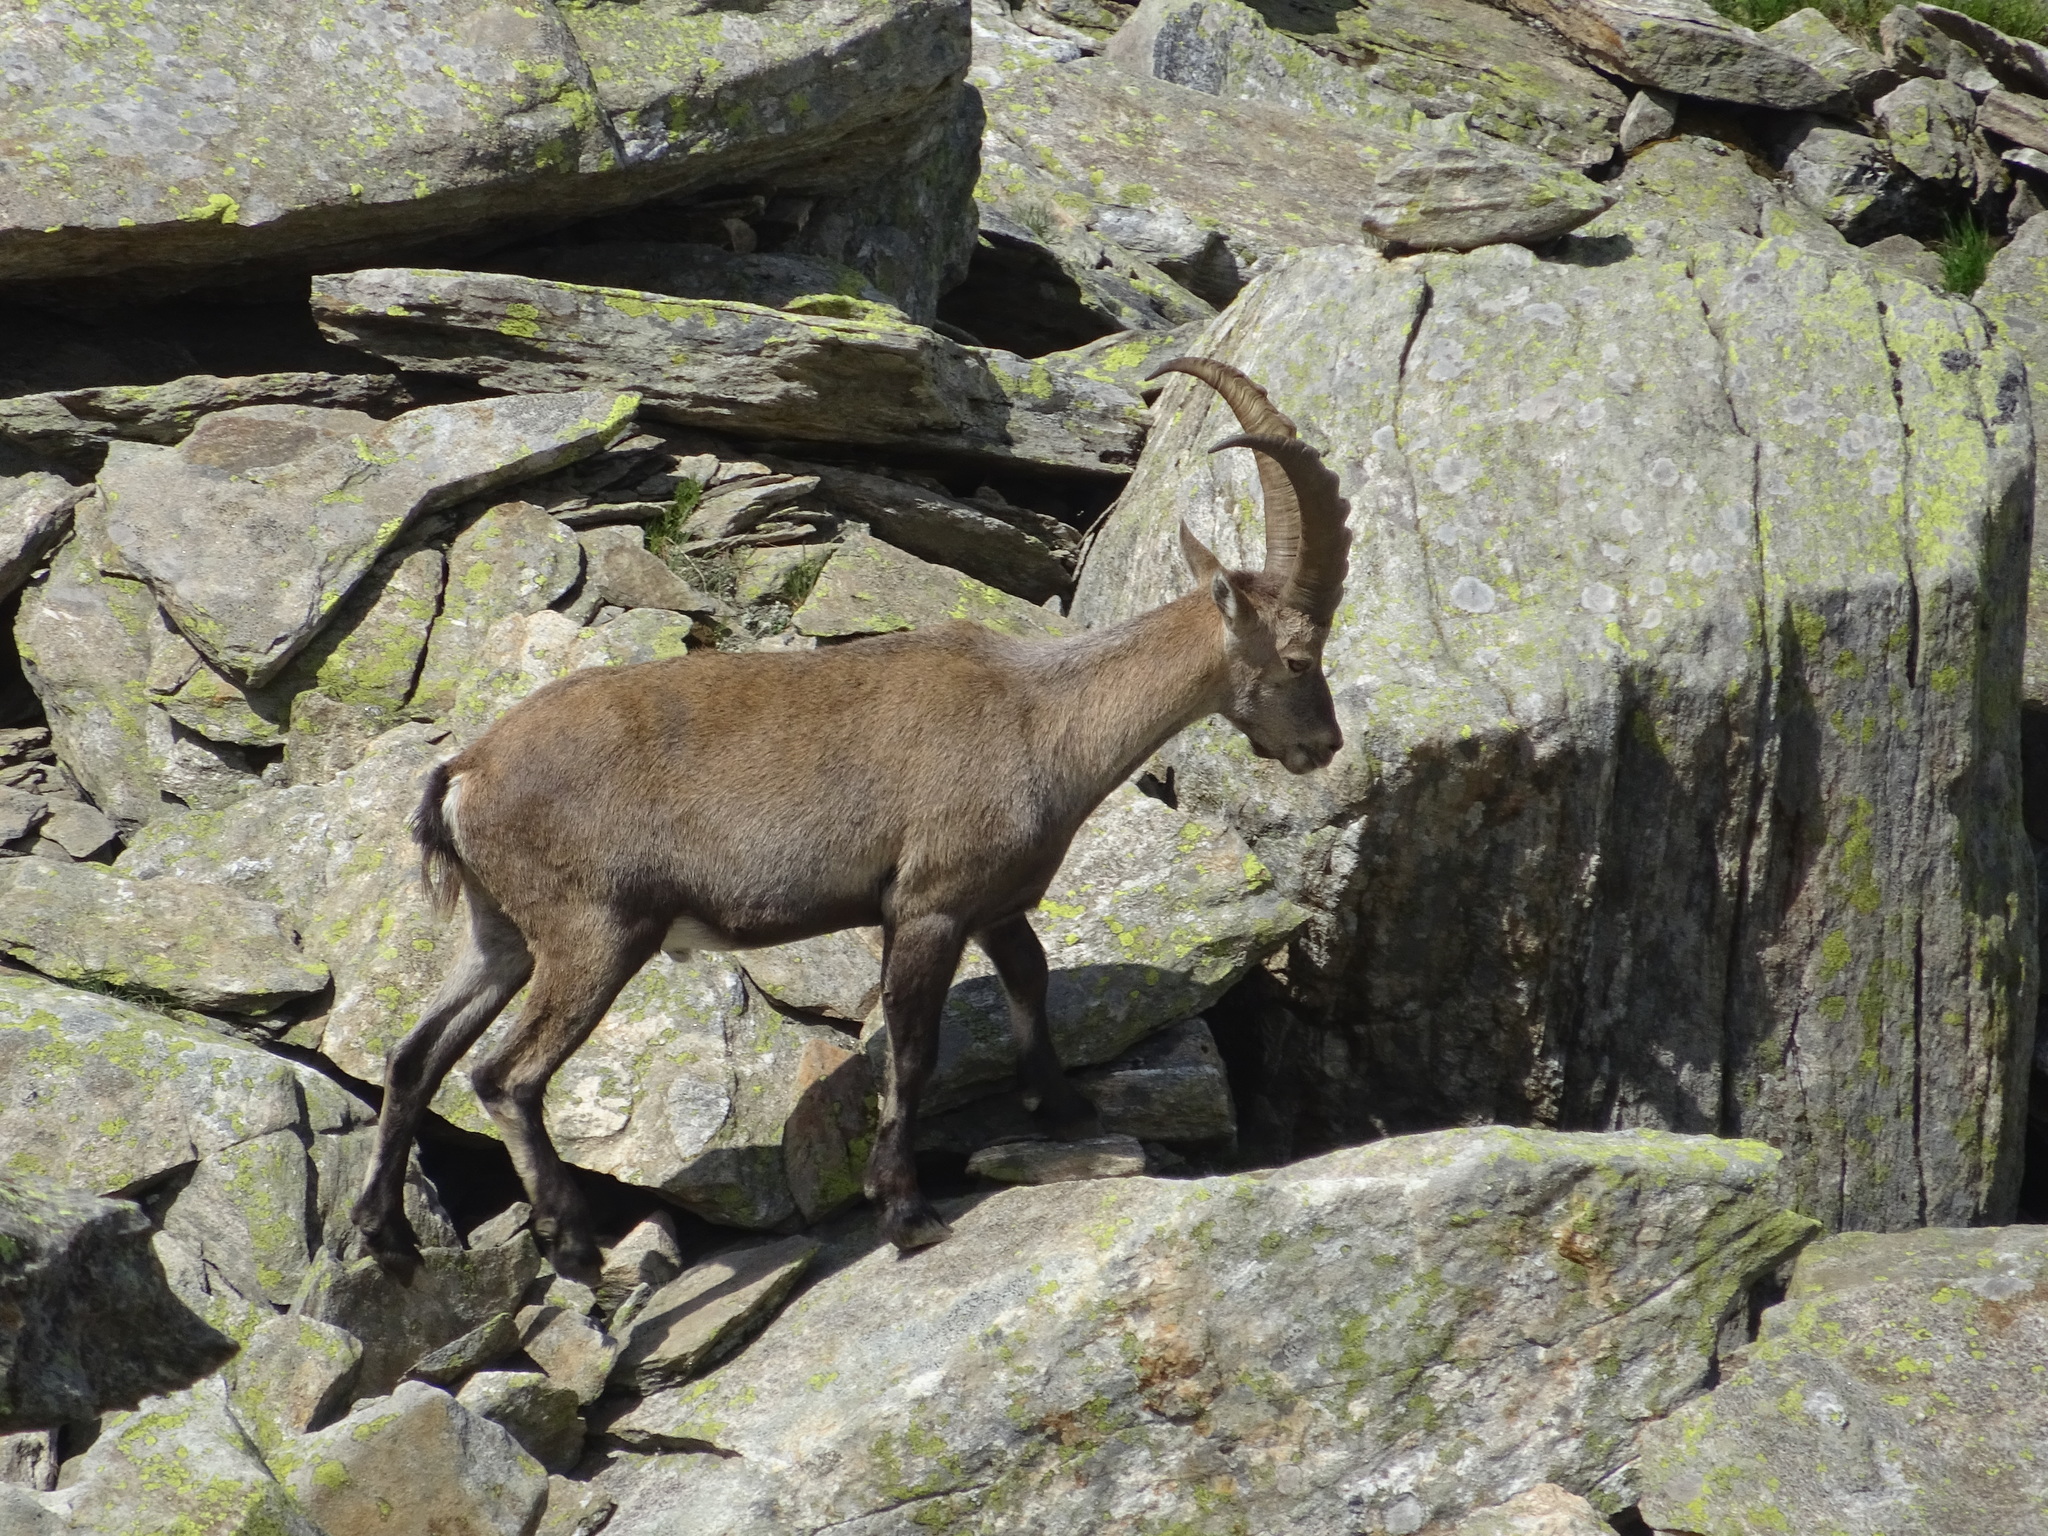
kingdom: Animalia
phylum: Chordata
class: Mammalia
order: Artiodactyla
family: Bovidae
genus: Capra
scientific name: Capra ibex
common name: Alpine ibex
